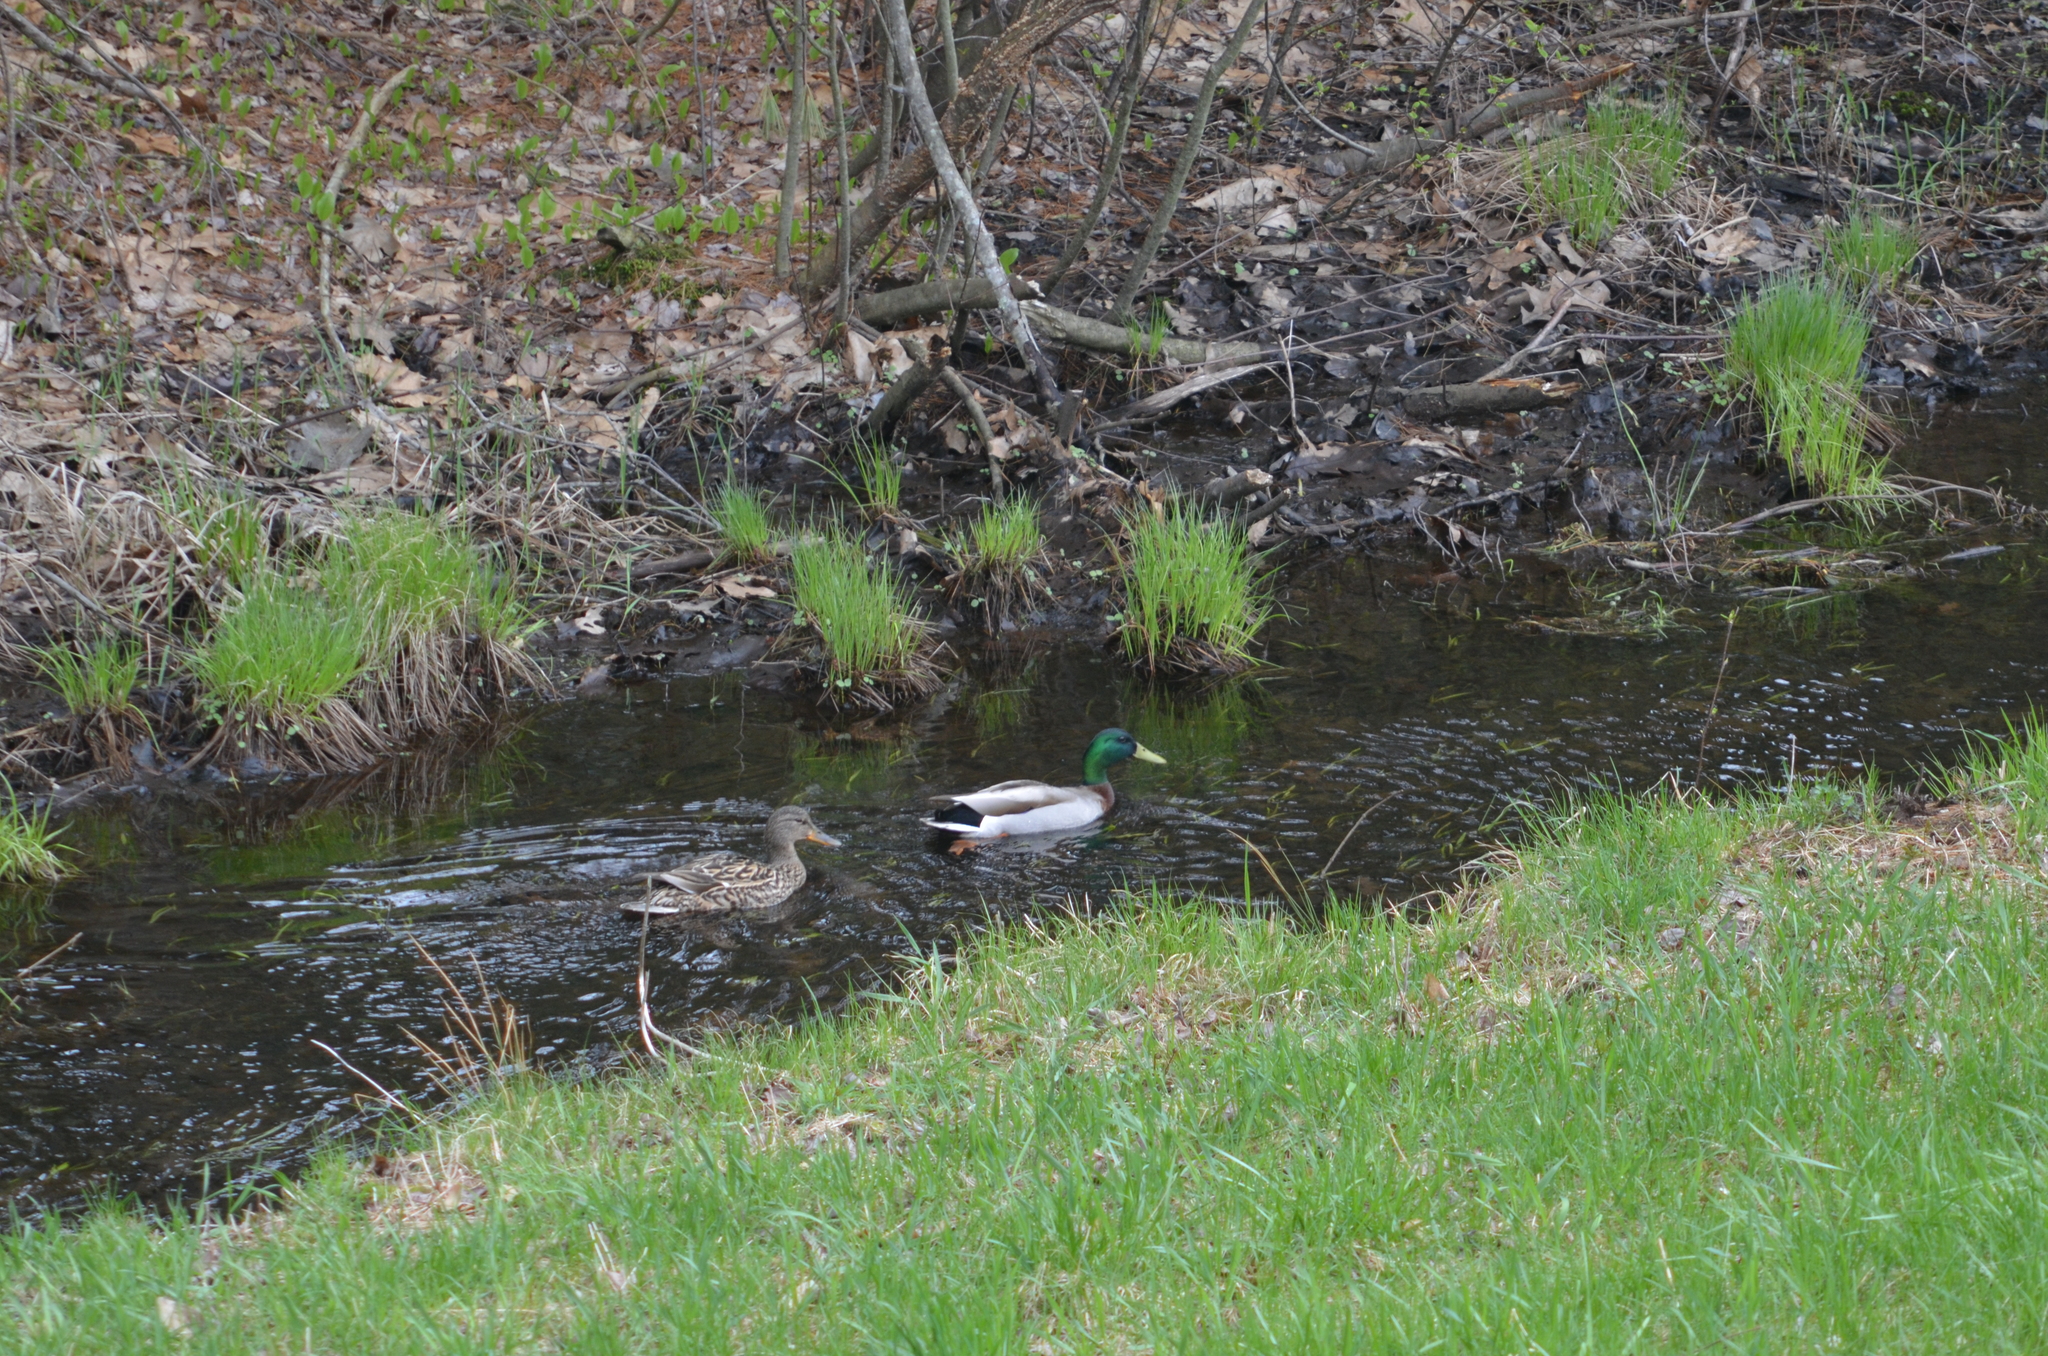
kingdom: Animalia
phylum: Chordata
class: Aves
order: Anseriformes
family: Anatidae
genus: Anas
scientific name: Anas platyrhynchos
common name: Mallard
